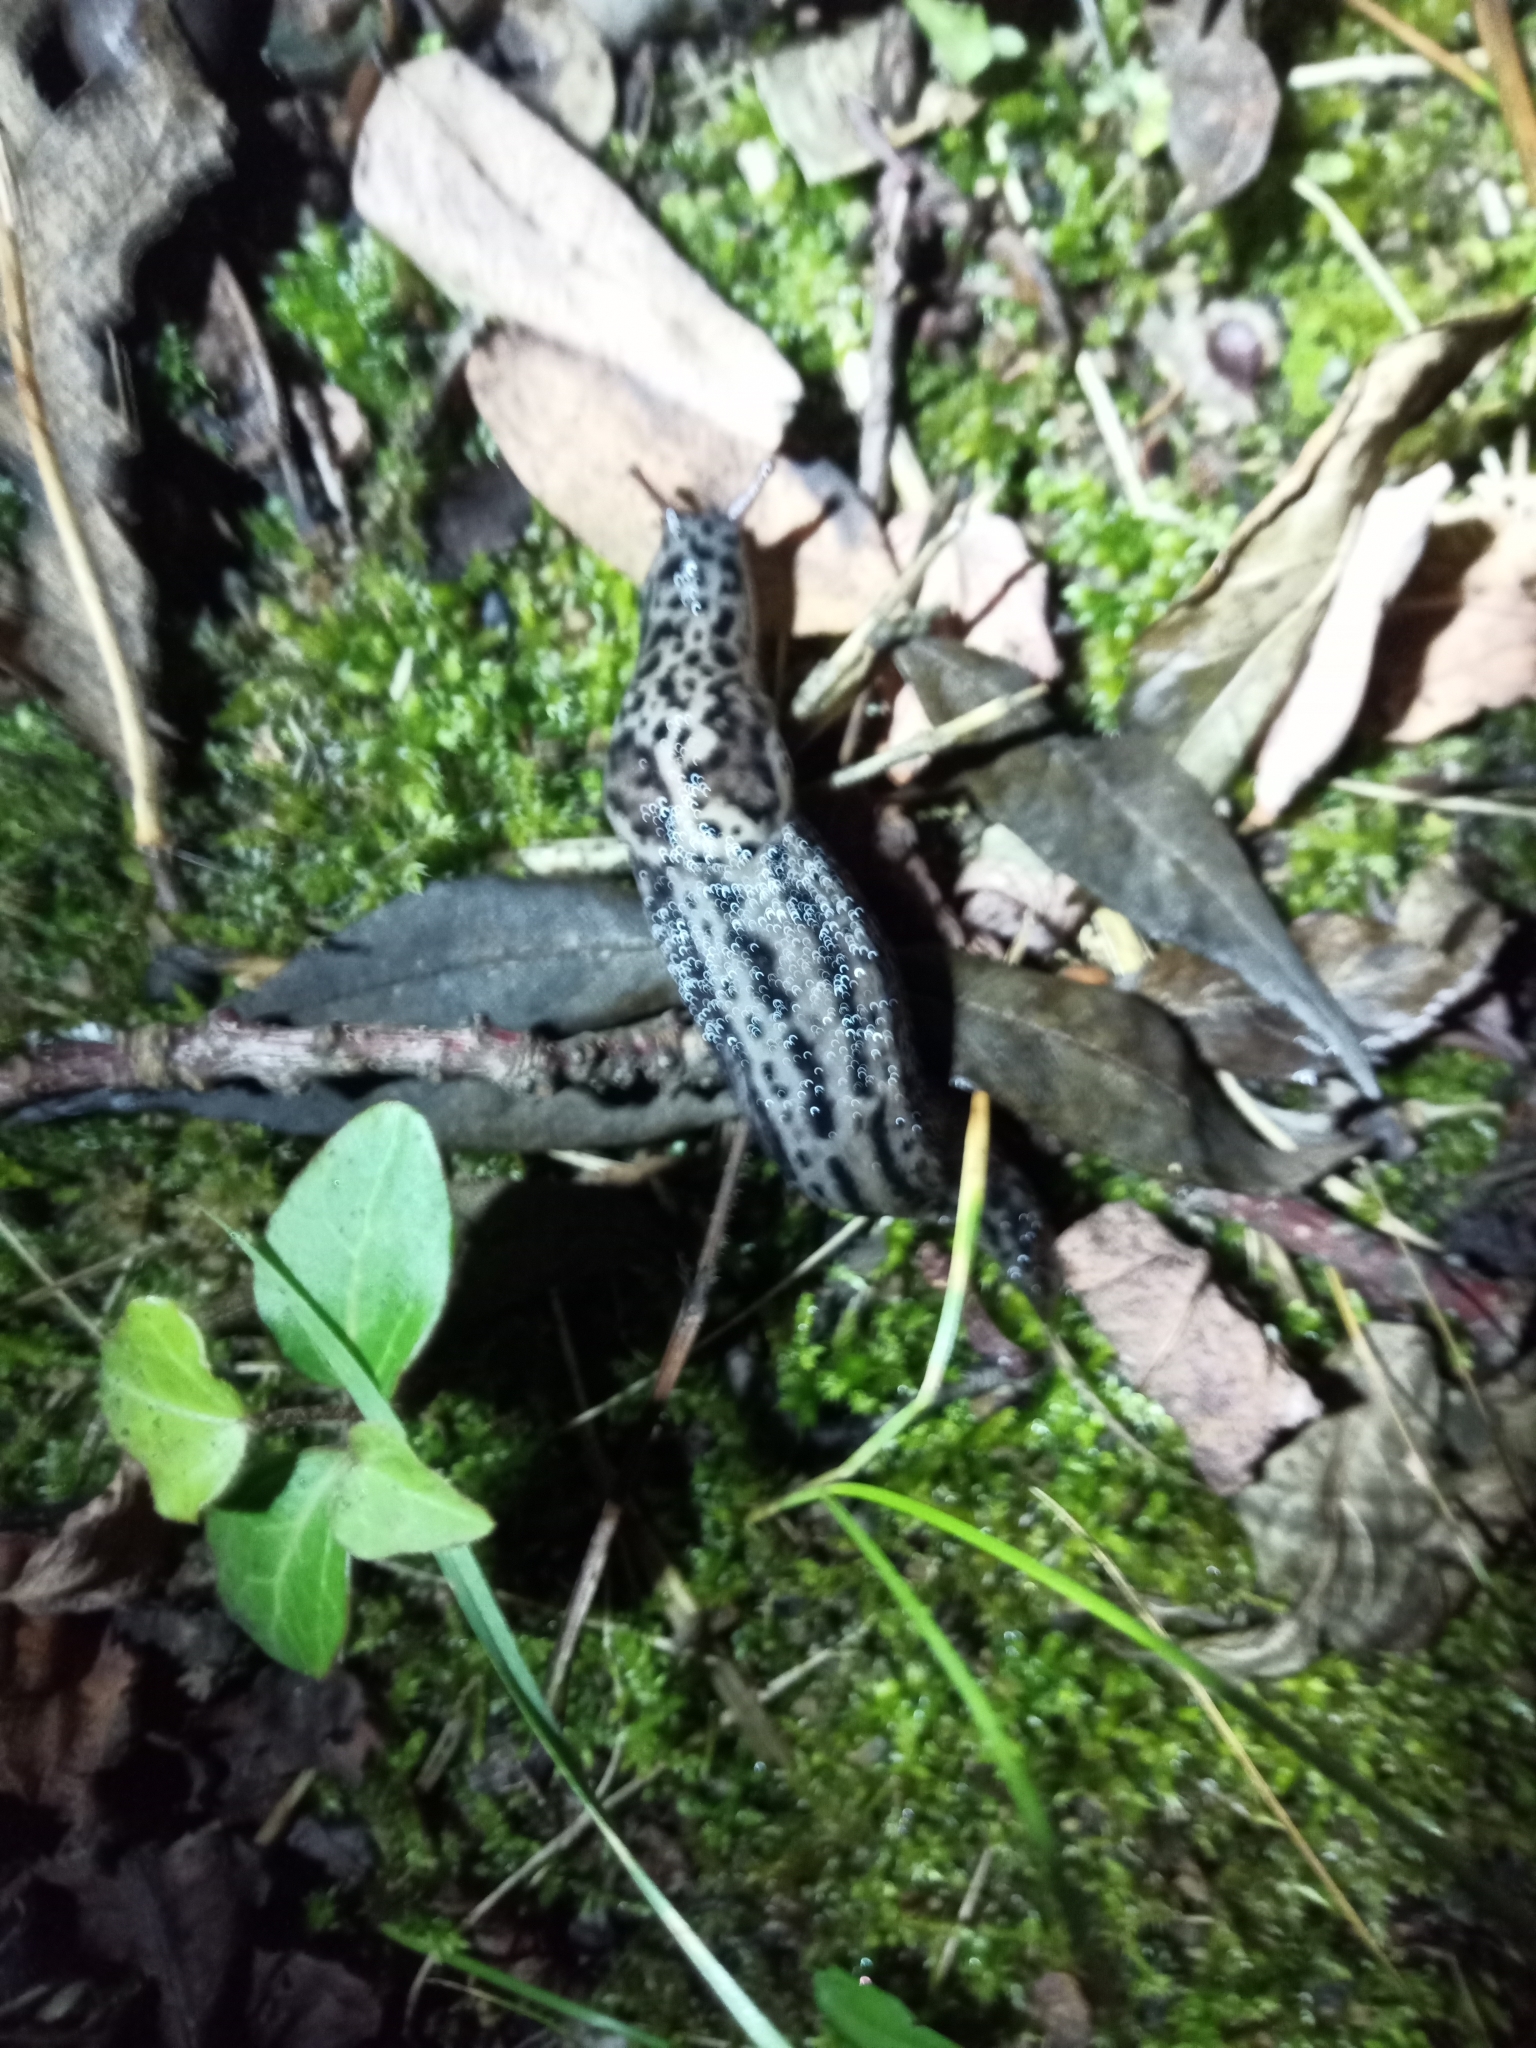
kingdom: Animalia
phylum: Mollusca
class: Gastropoda
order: Stylommatophora
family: Limacidae
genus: Limax
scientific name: Limax maximus
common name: Great grey slug
